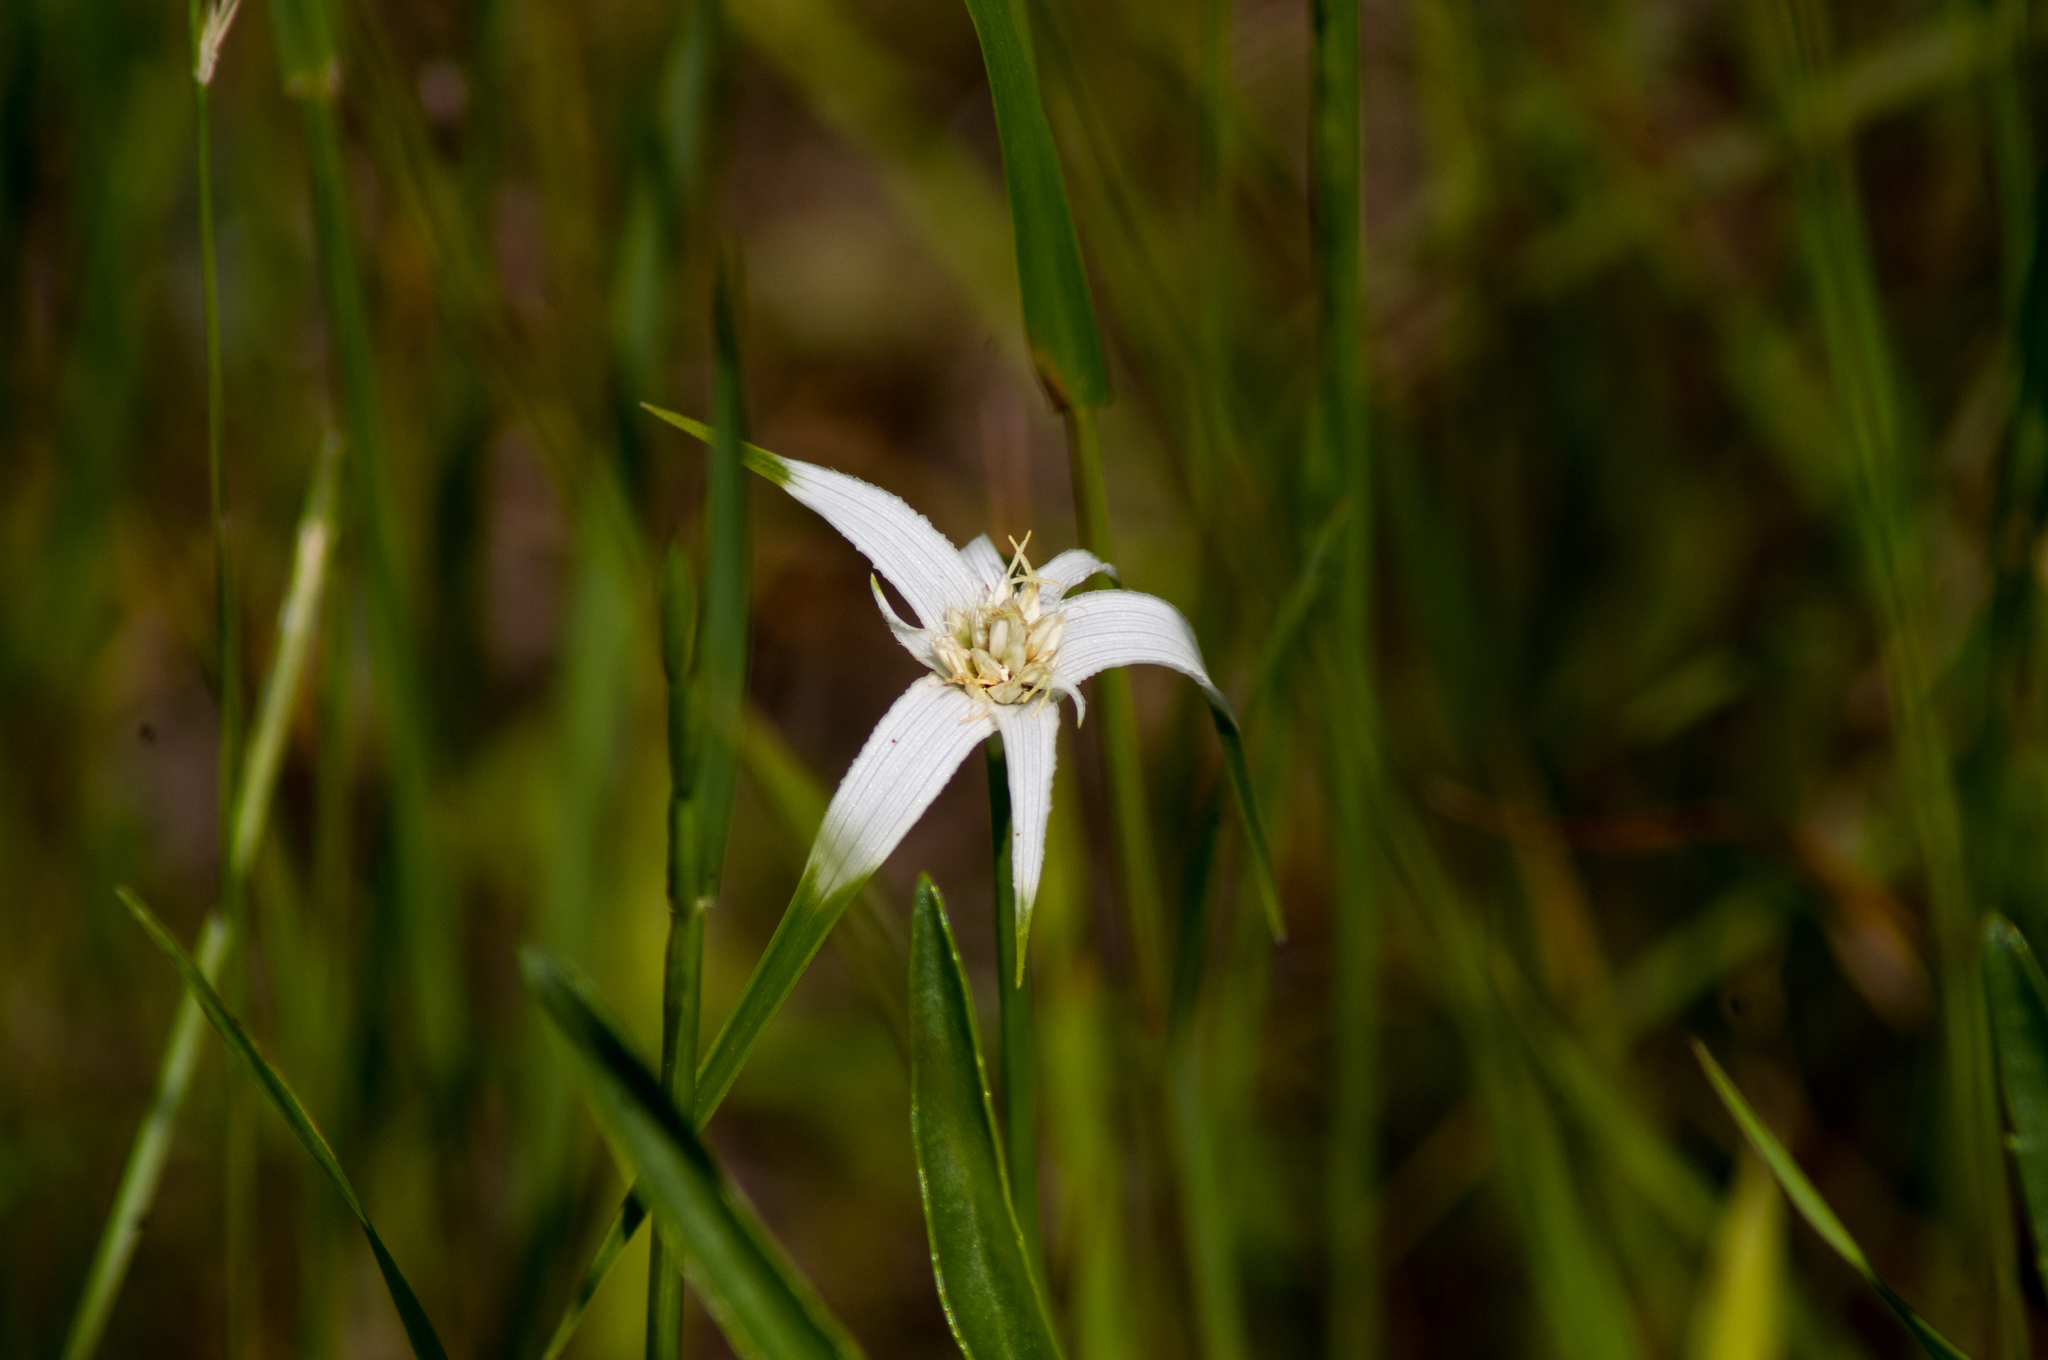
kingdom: Plantae
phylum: Tracheophyta
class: Liliopsida
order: Poales
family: Cyperaceae
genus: Rhynchospora
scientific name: Rhynchospora colorata
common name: Star sedge
